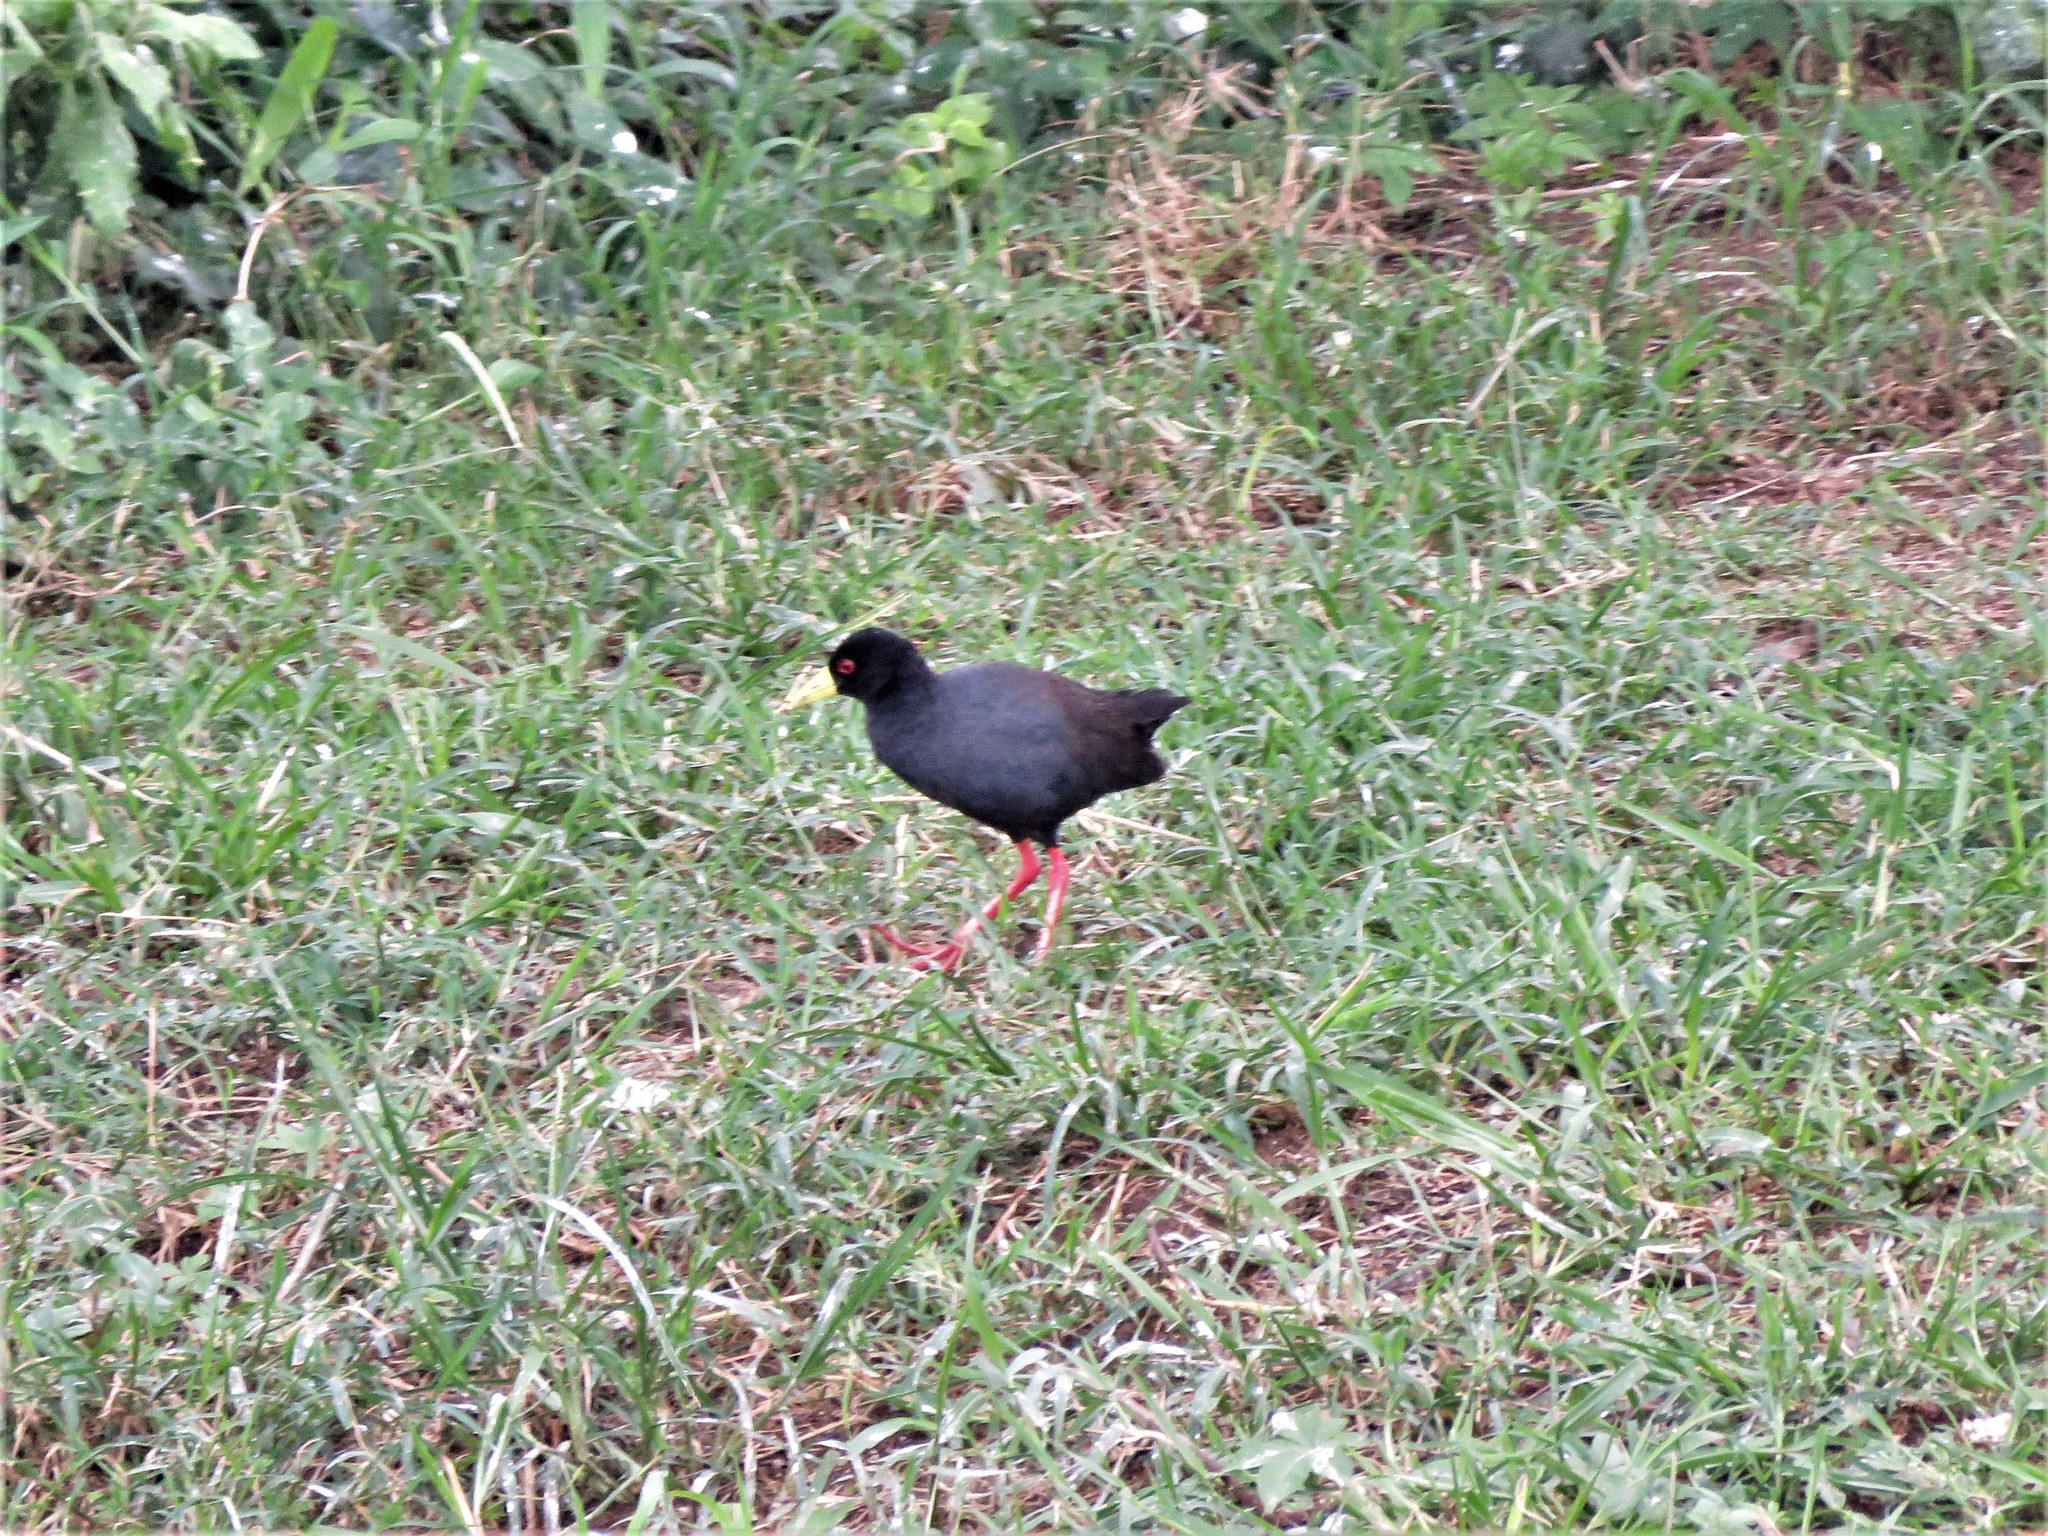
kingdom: Animalia
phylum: Chordata
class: Aves
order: Gruiformes
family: Rallidae
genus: Amaurornis
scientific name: Amaurornis flavirostra
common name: Black crake
